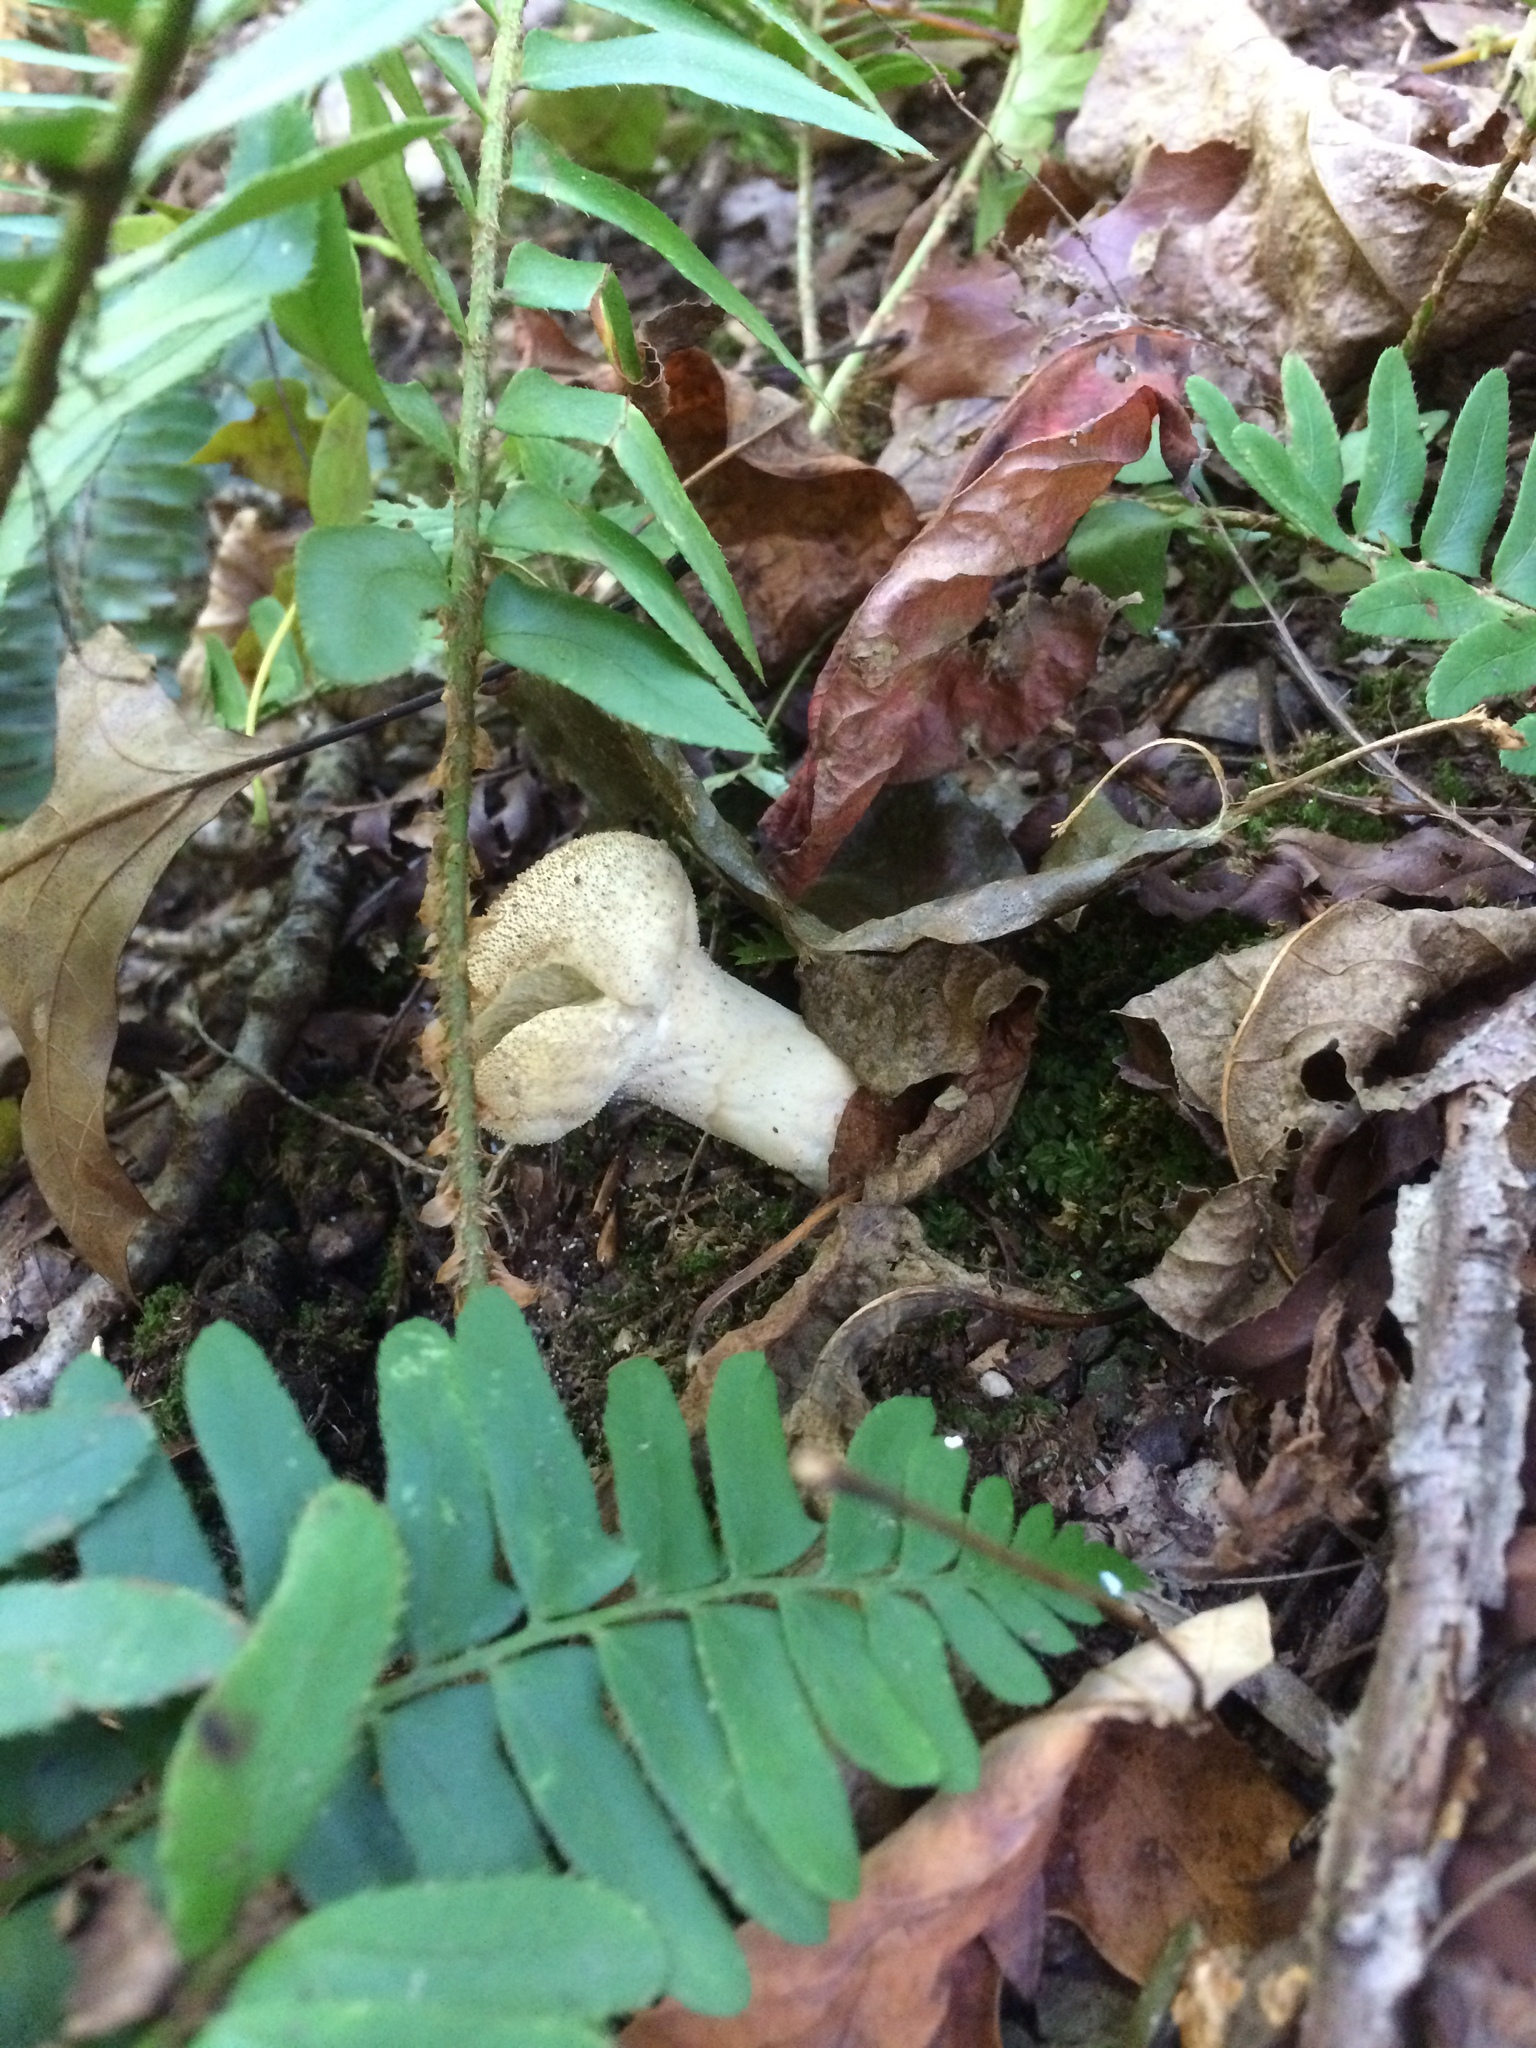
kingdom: Fungi
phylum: Basidiomycota
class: Agaricomycetes
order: Agaricales
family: Lycoperdaceae
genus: Lycoperdon
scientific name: Lycoperdon perlatum
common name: Common puffball
